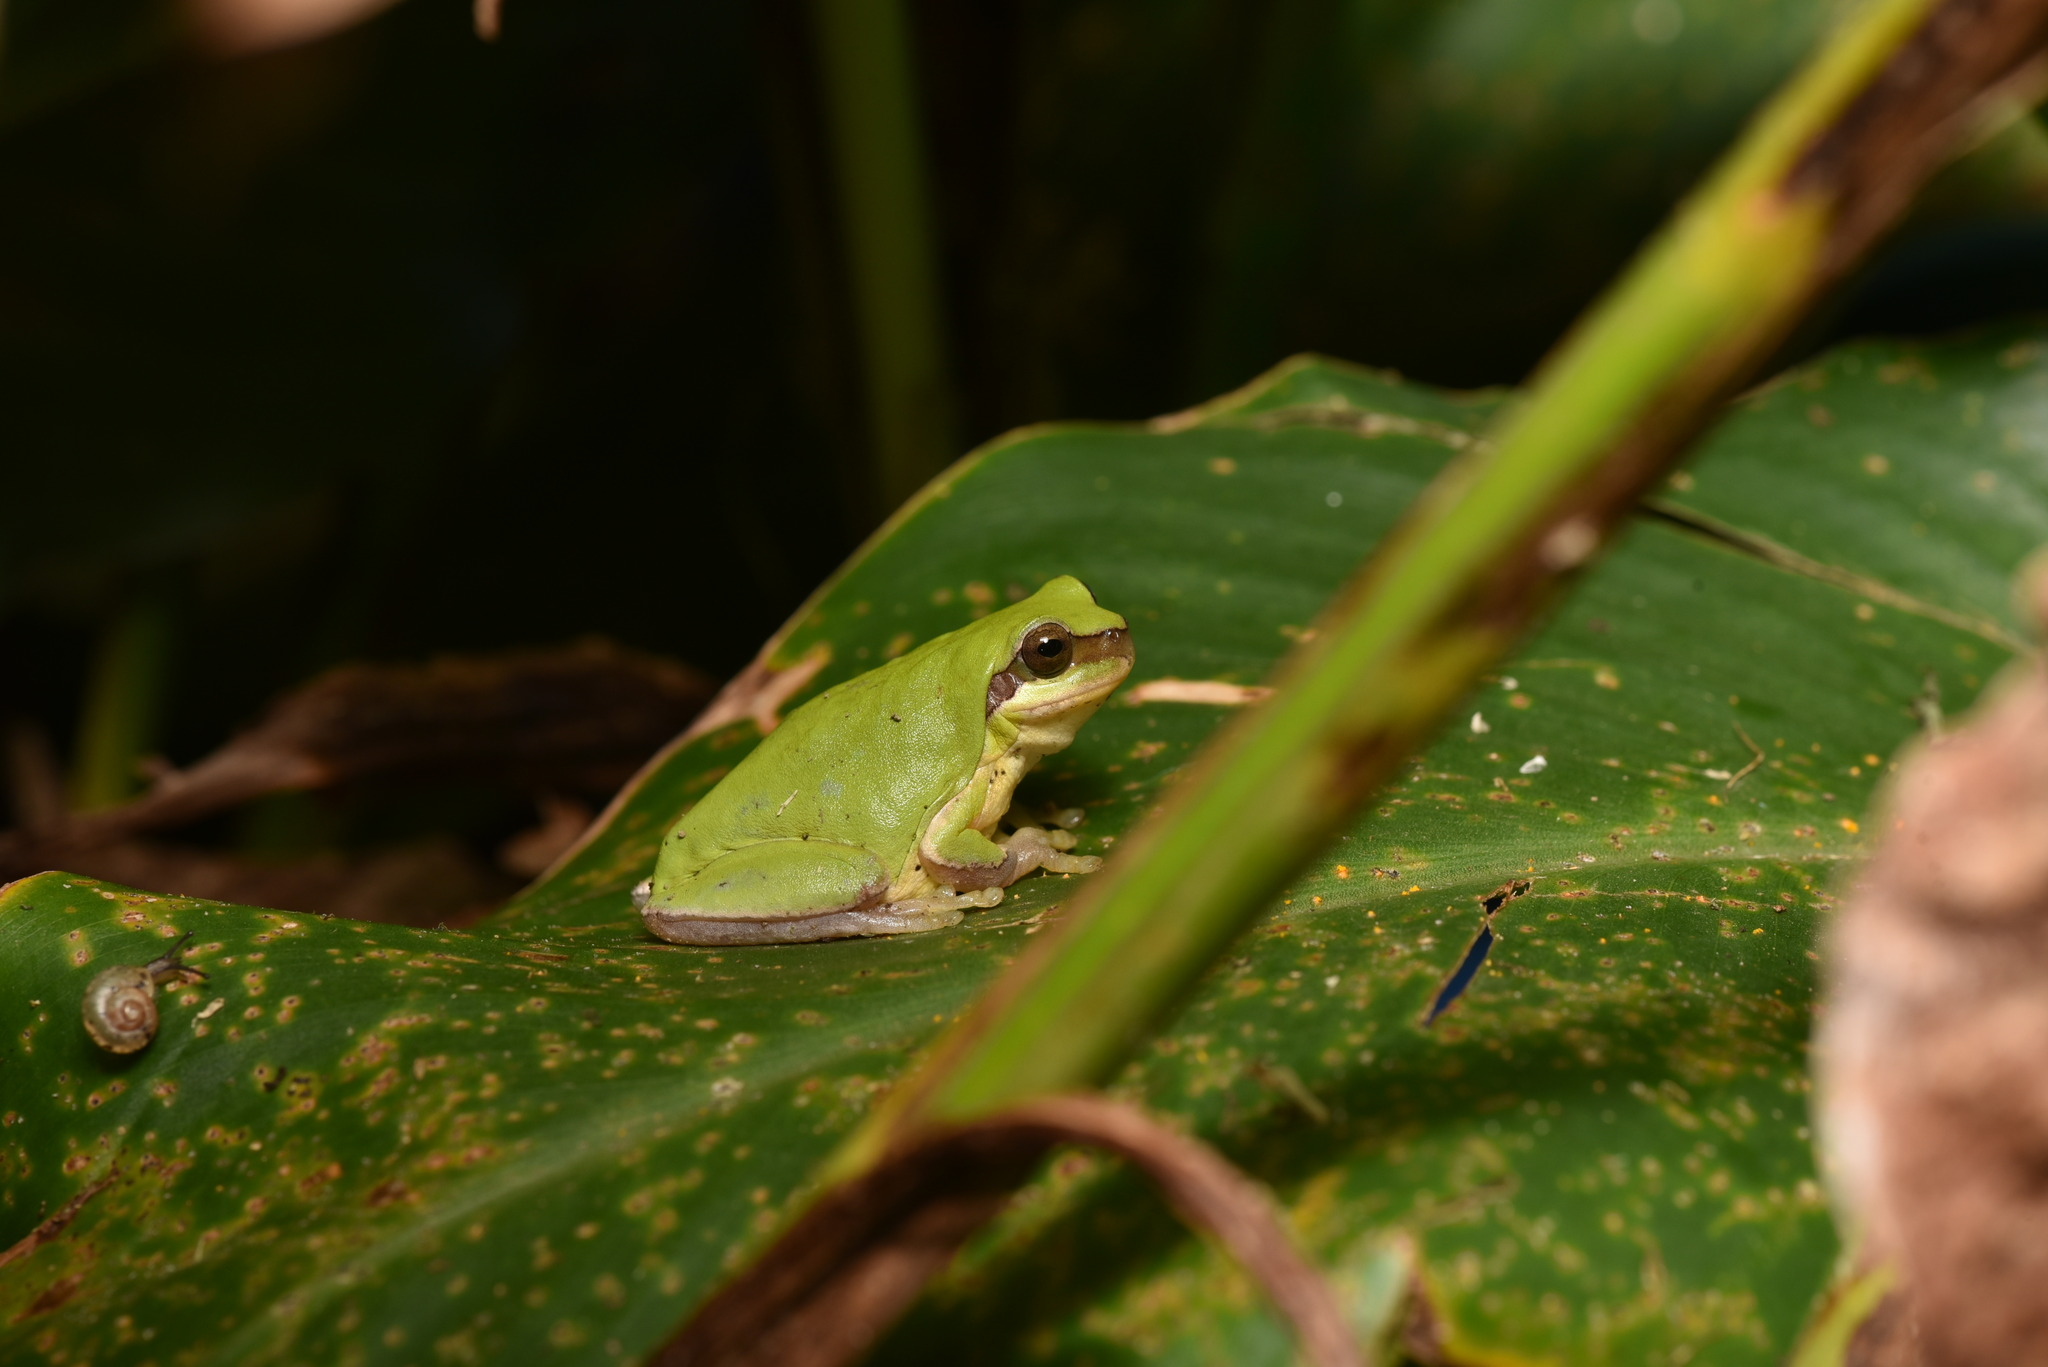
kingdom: Animalia
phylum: Chordata
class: Amphibia
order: Anura
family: Hylidae
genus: Hyla
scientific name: Hyla chinensis
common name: Common chinese treefrog
